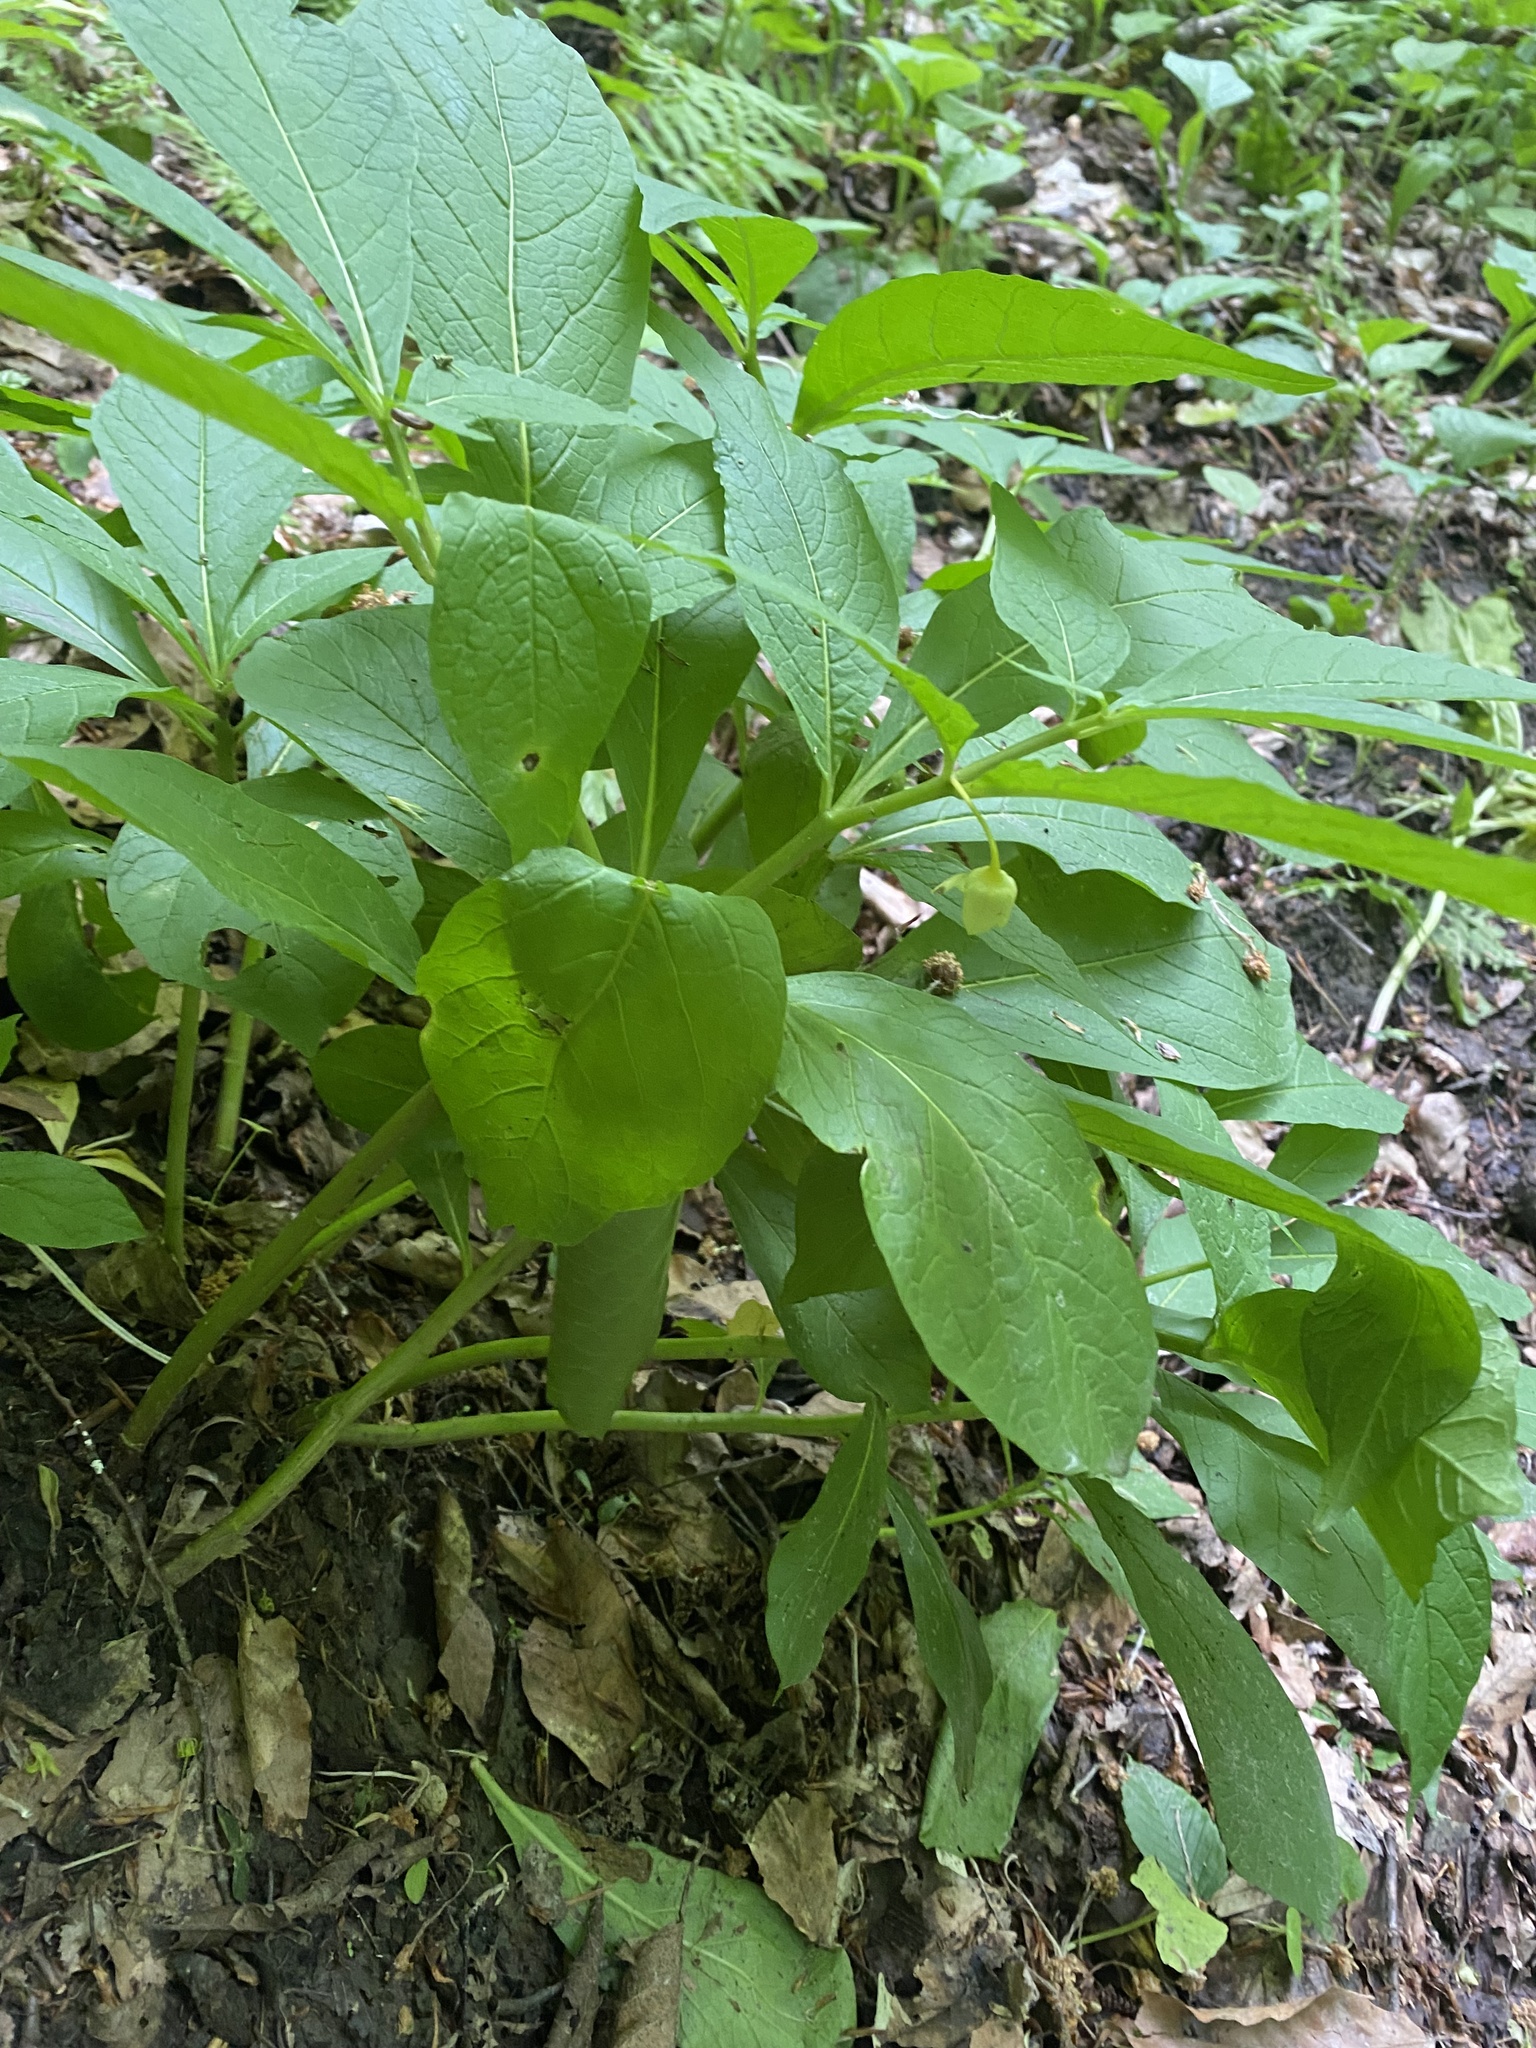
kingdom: Plantae
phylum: Tracheophyta
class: Magnoliopsida
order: Solanales
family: Solanaceae
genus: Scopolia
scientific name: Scopolia carniolica
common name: Scopolia
